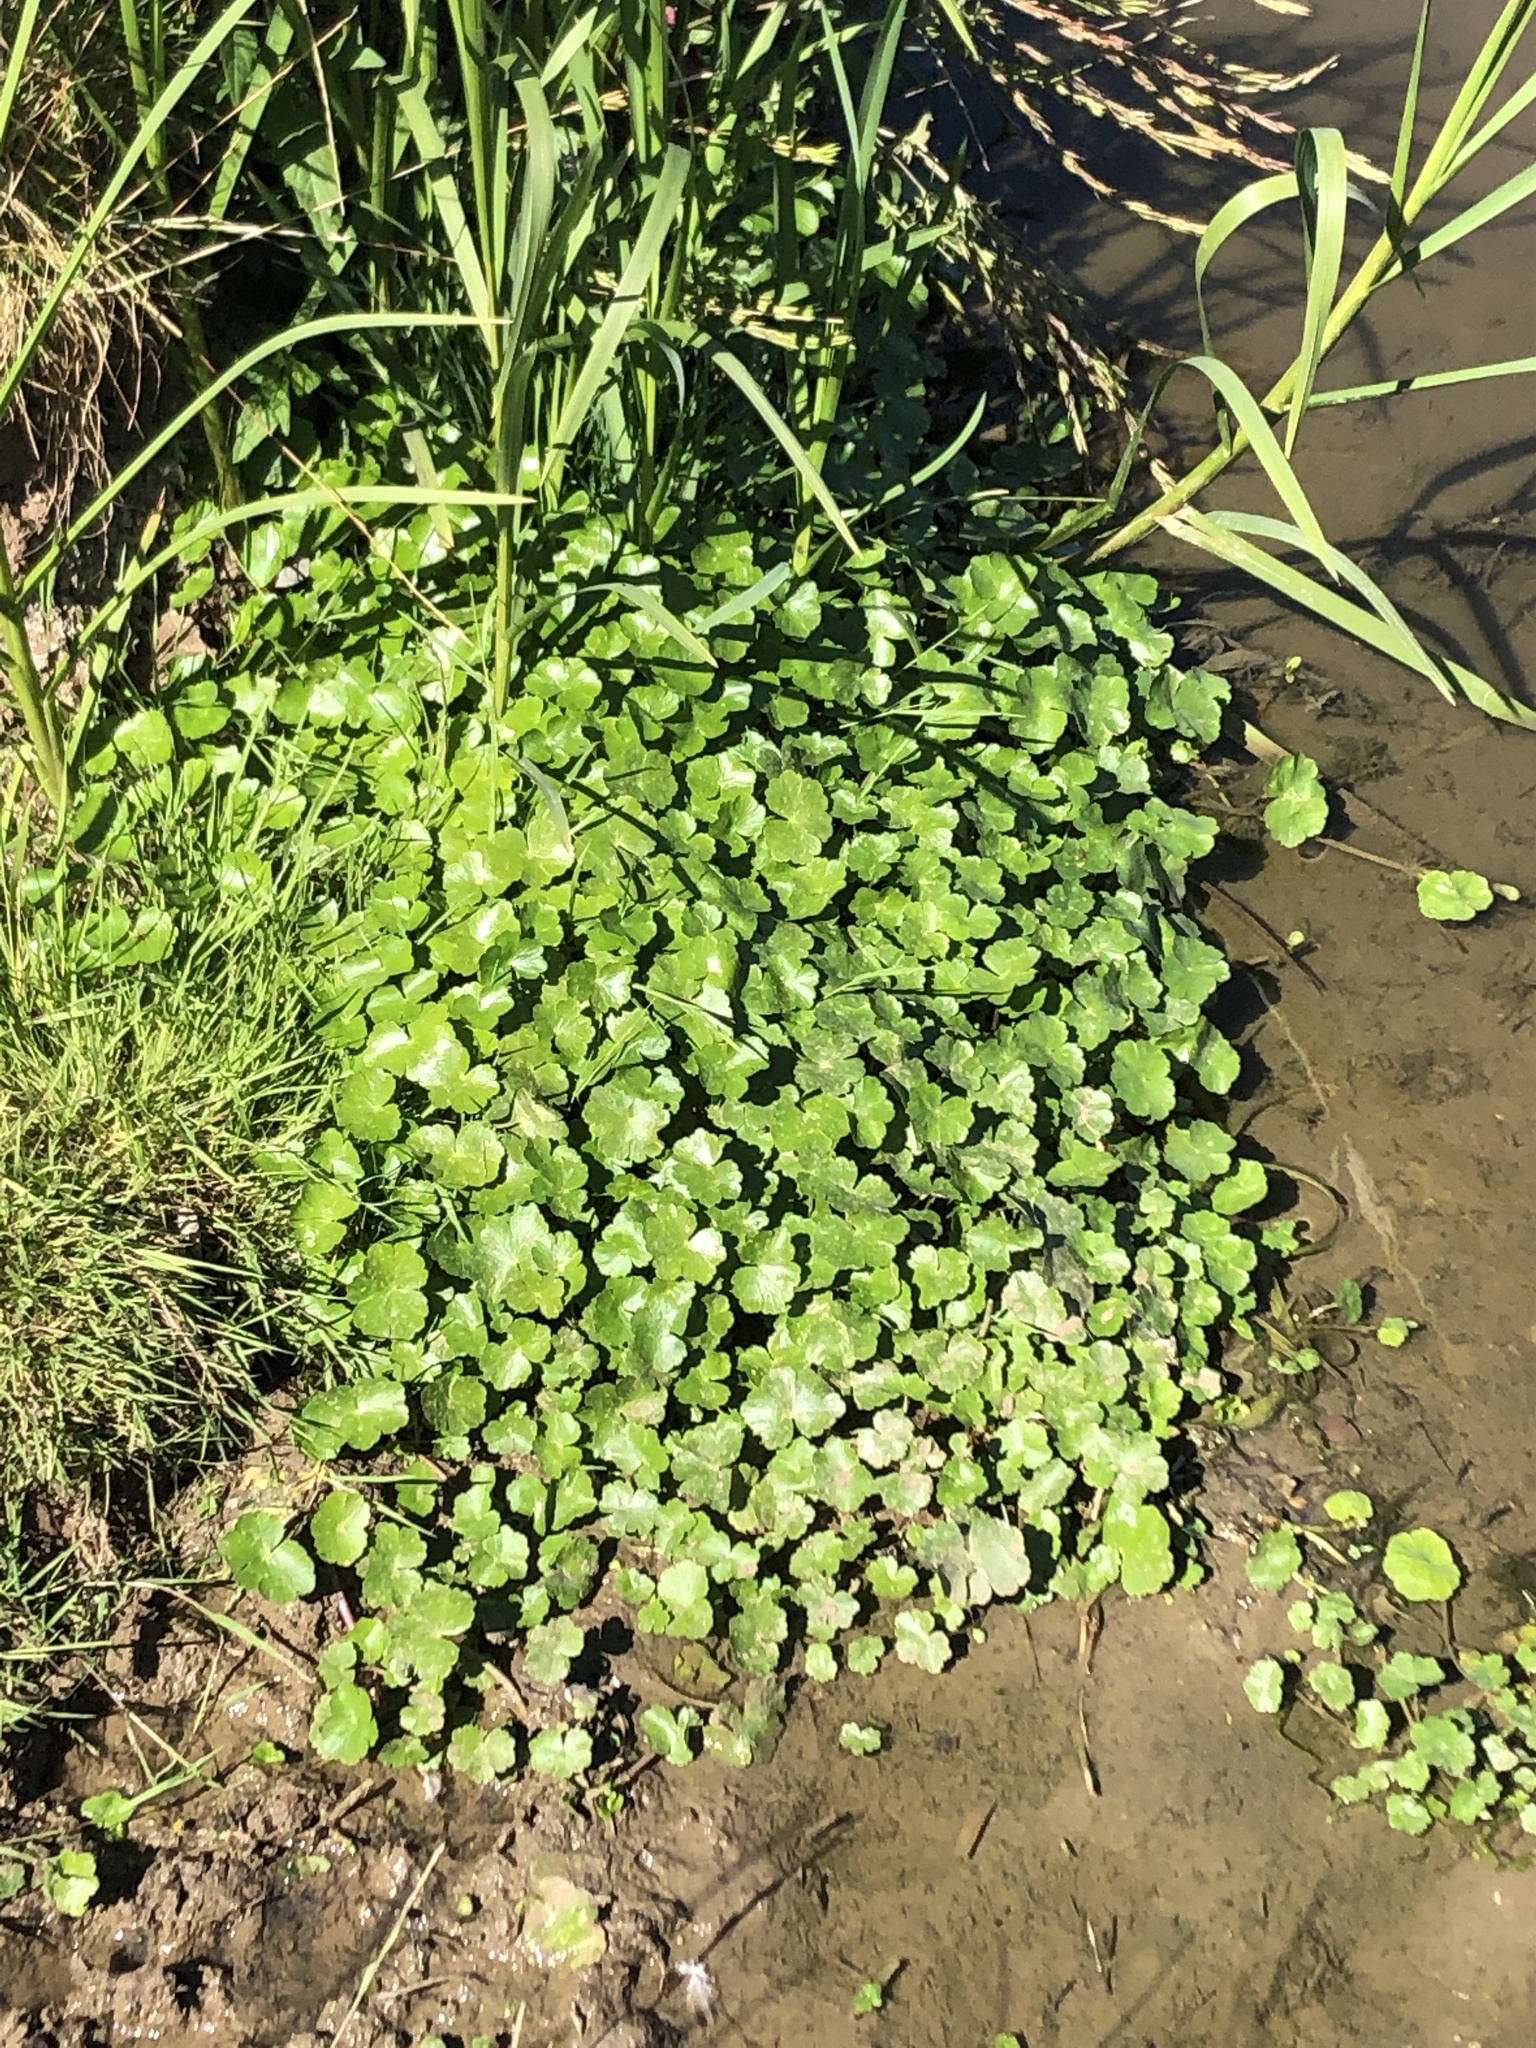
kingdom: Plantae
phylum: Tracheophyta
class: Magnoliopsida
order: Apiales
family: Araliaceae
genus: Hydrocotyle
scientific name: Hydrocotyle ranunculoides
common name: Floating pennywort
